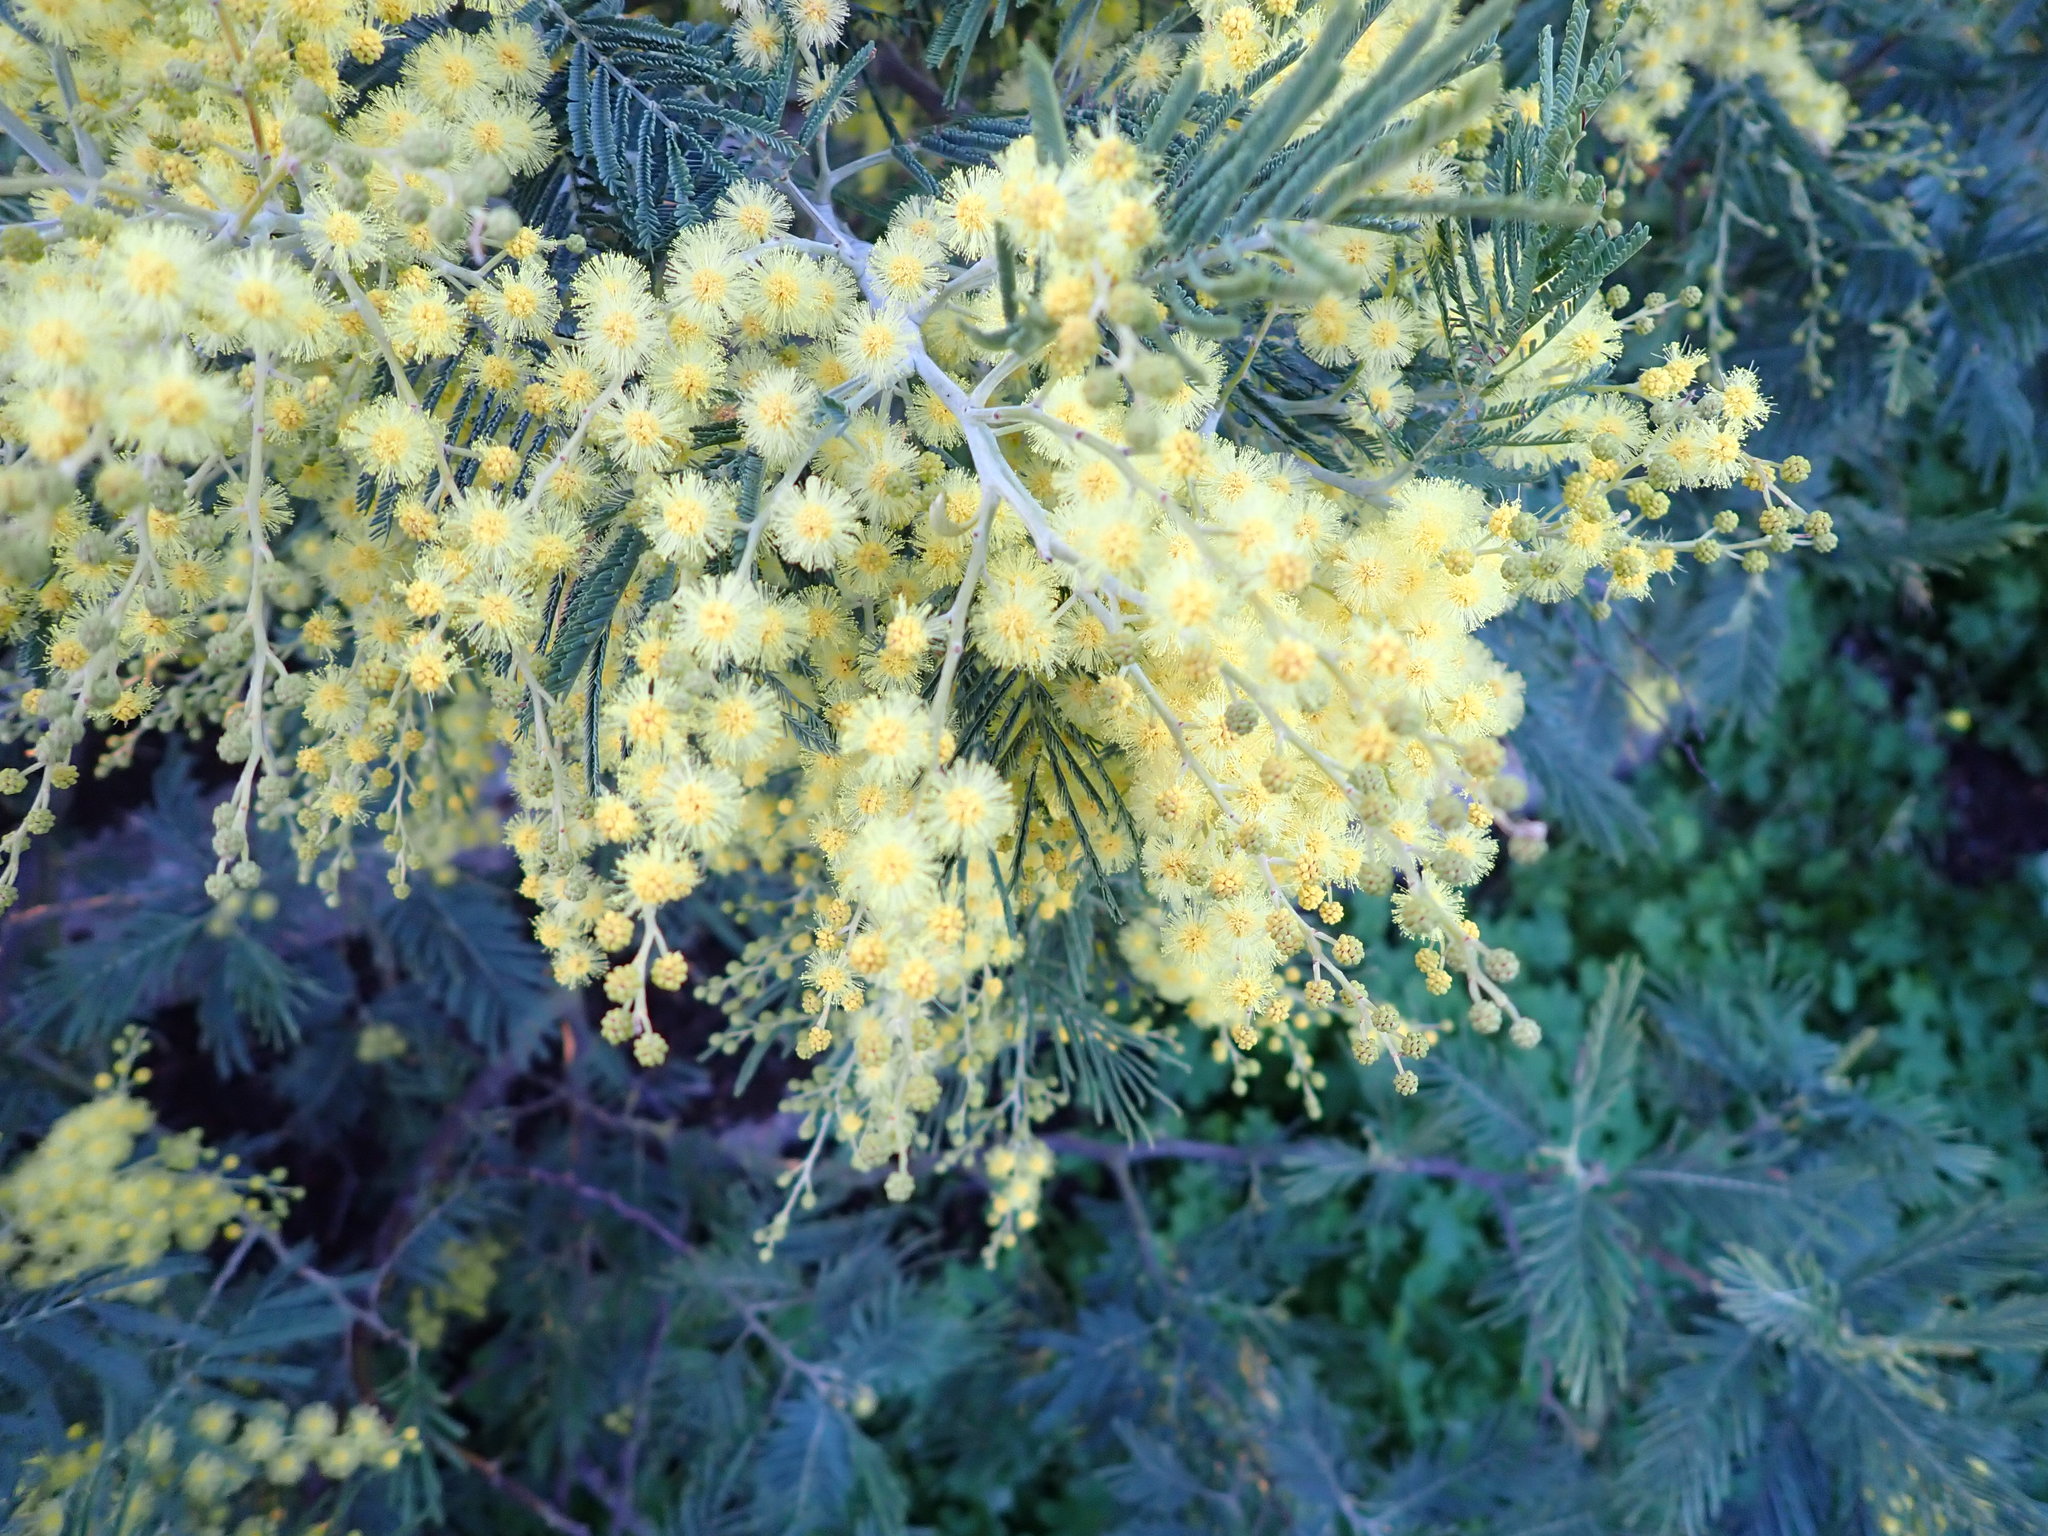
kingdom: Plantae
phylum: Tracheophyta
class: Magnoliopsida
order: Fabales
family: Fabaceae
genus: Acacia
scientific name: Acacia dealbata
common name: Silver wattle
